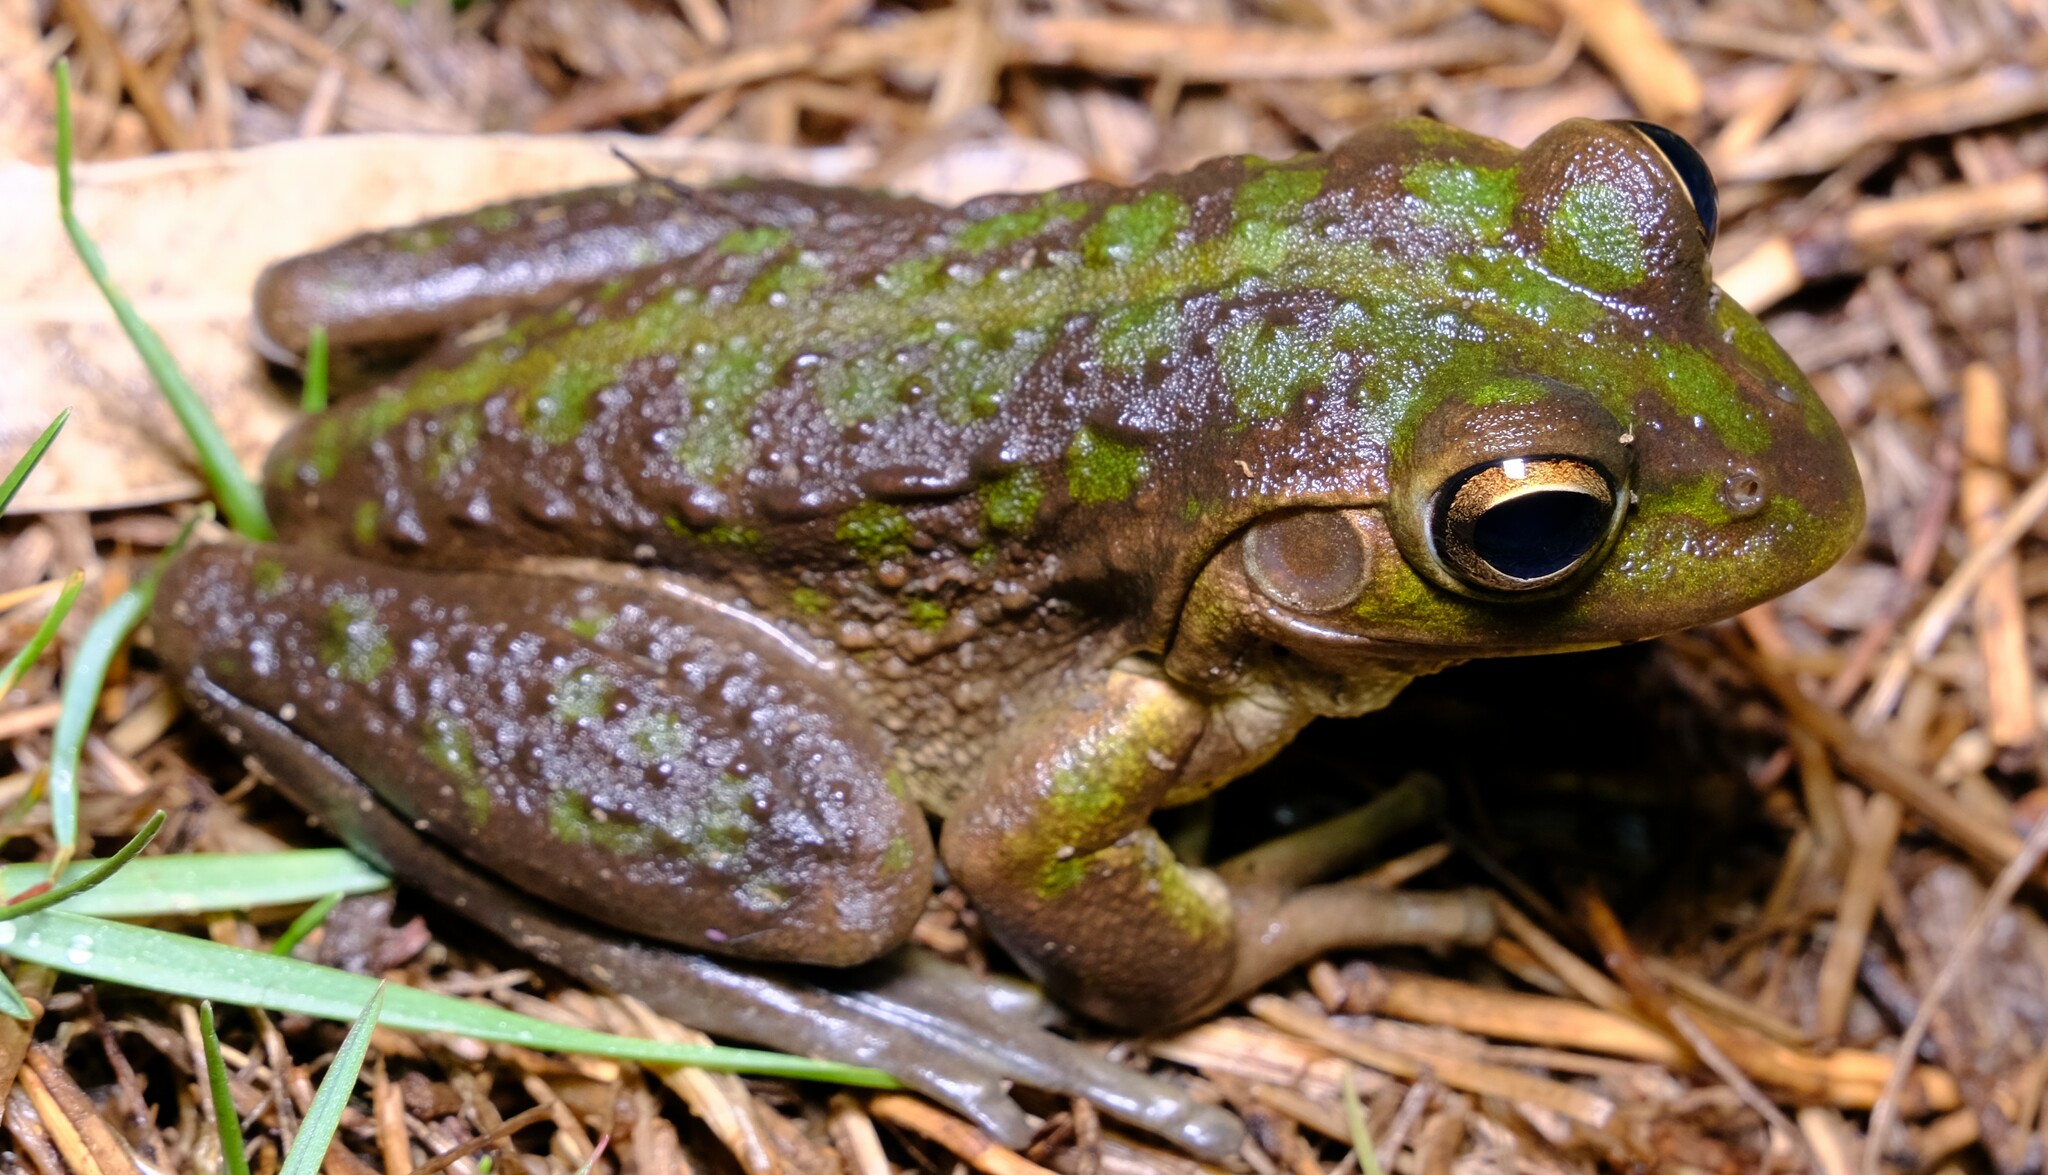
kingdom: Animalia
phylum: Chordata
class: Amphibia
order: Anura
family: Pelodryadidae
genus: Ranoidea
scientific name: Ranoidea moorei
